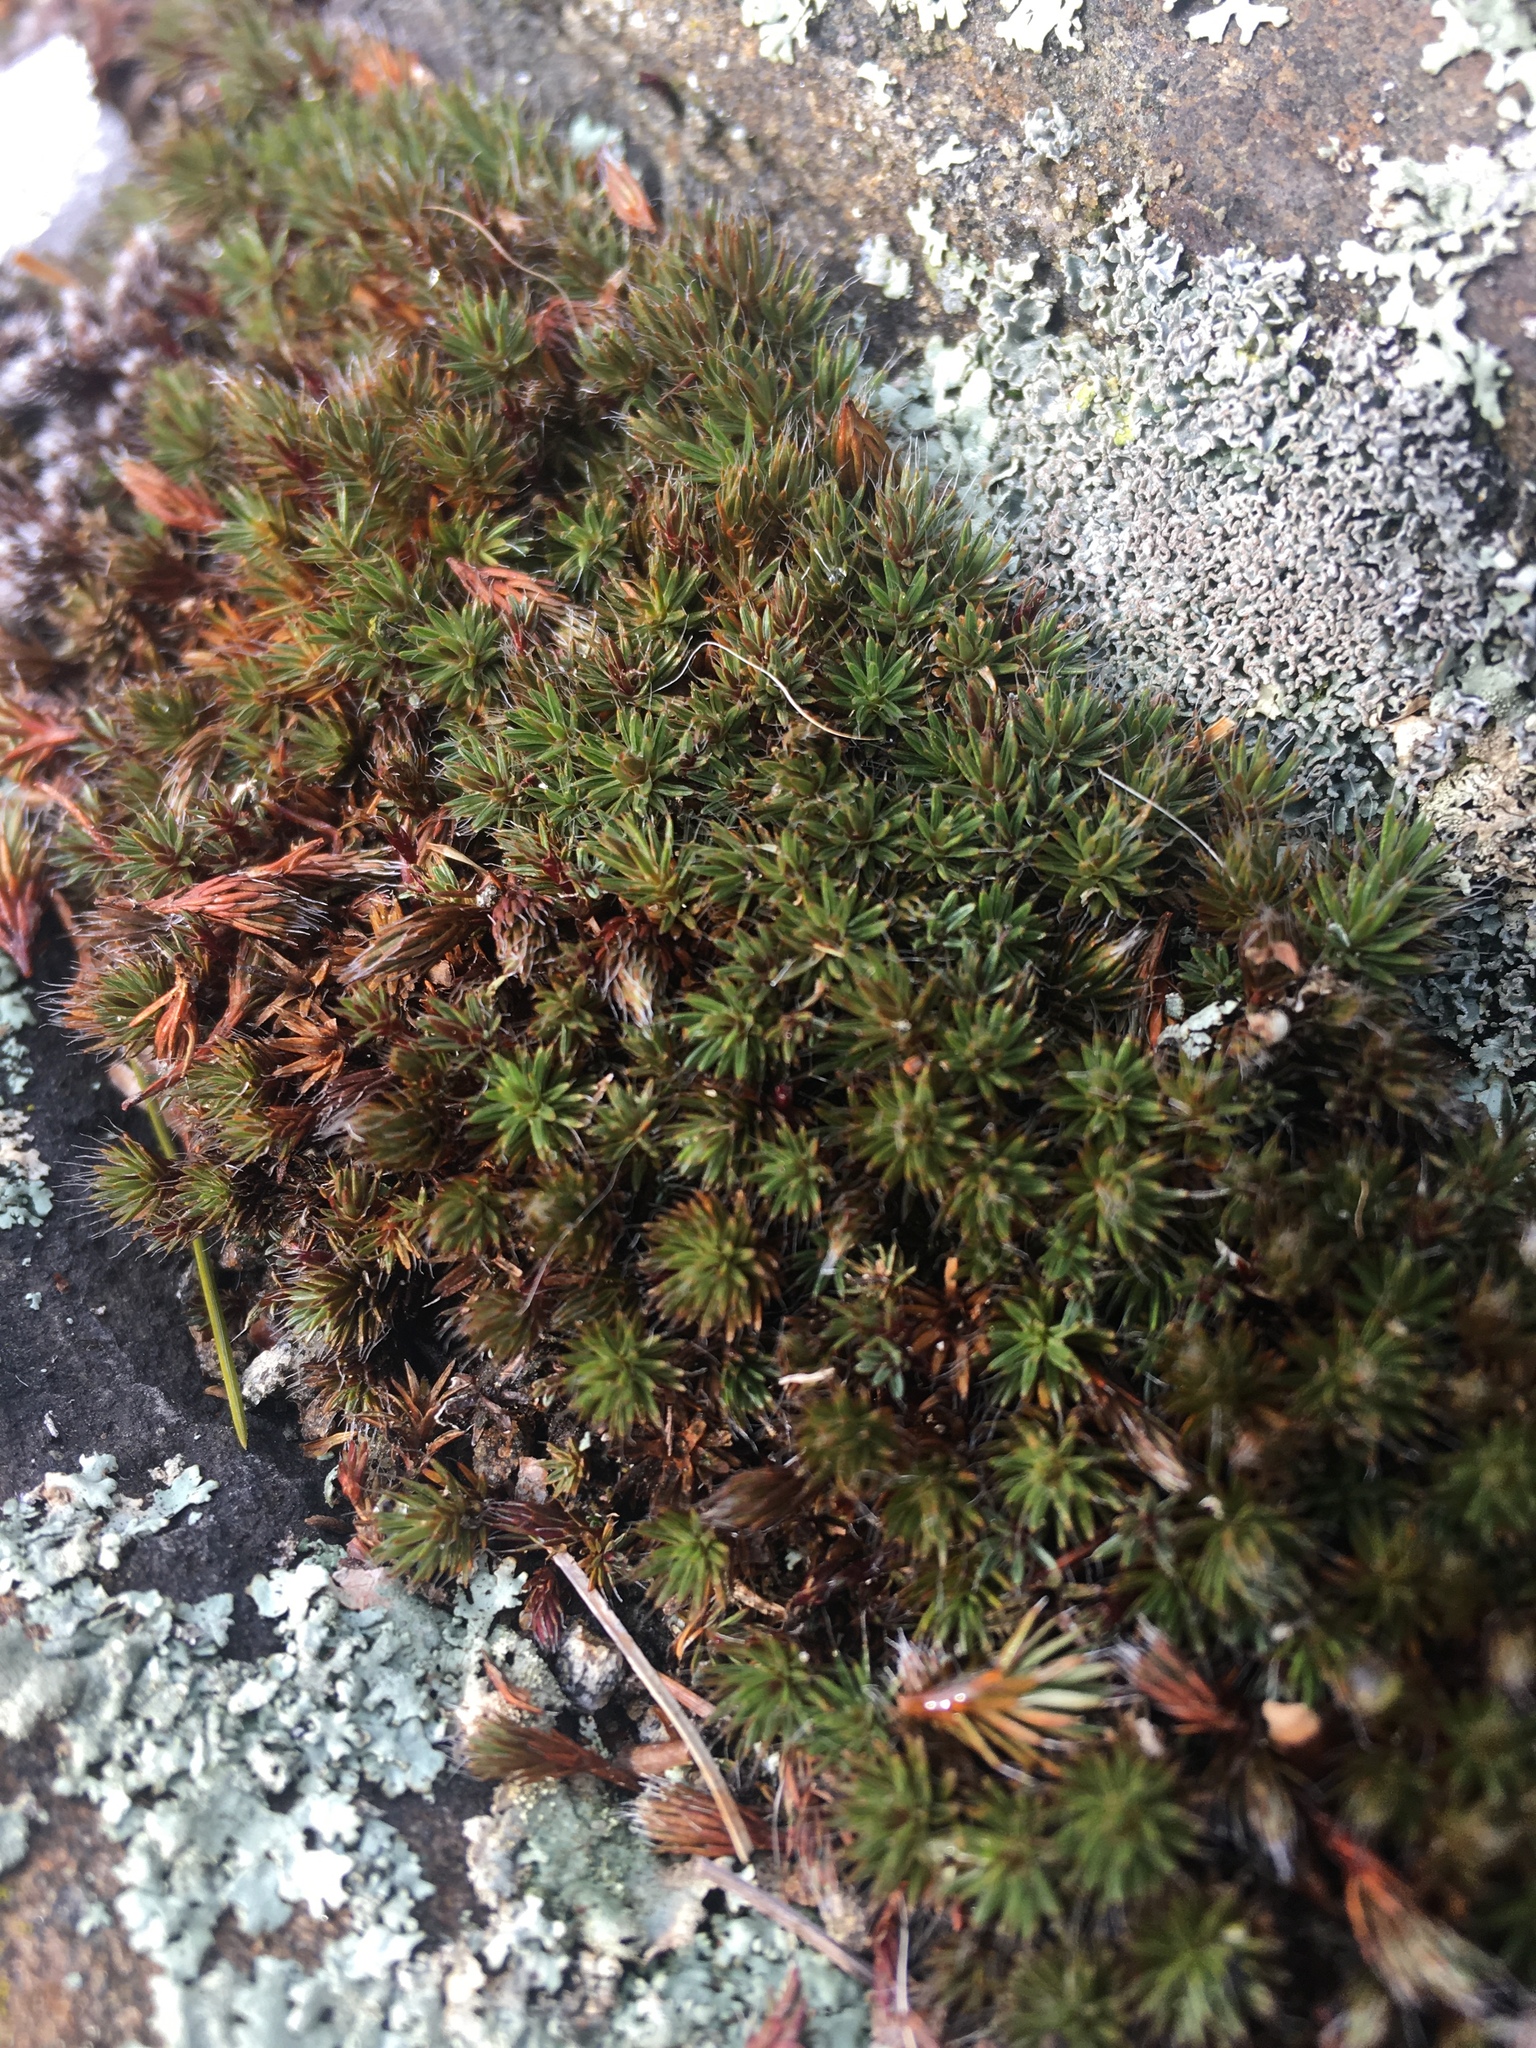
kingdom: Plantae
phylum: Bryophyta
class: Polytrichopsida
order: Polytrichales
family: Polytrichaceae
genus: Polytrichum
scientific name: Polytrichum piliferum
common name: Bristly haircap
